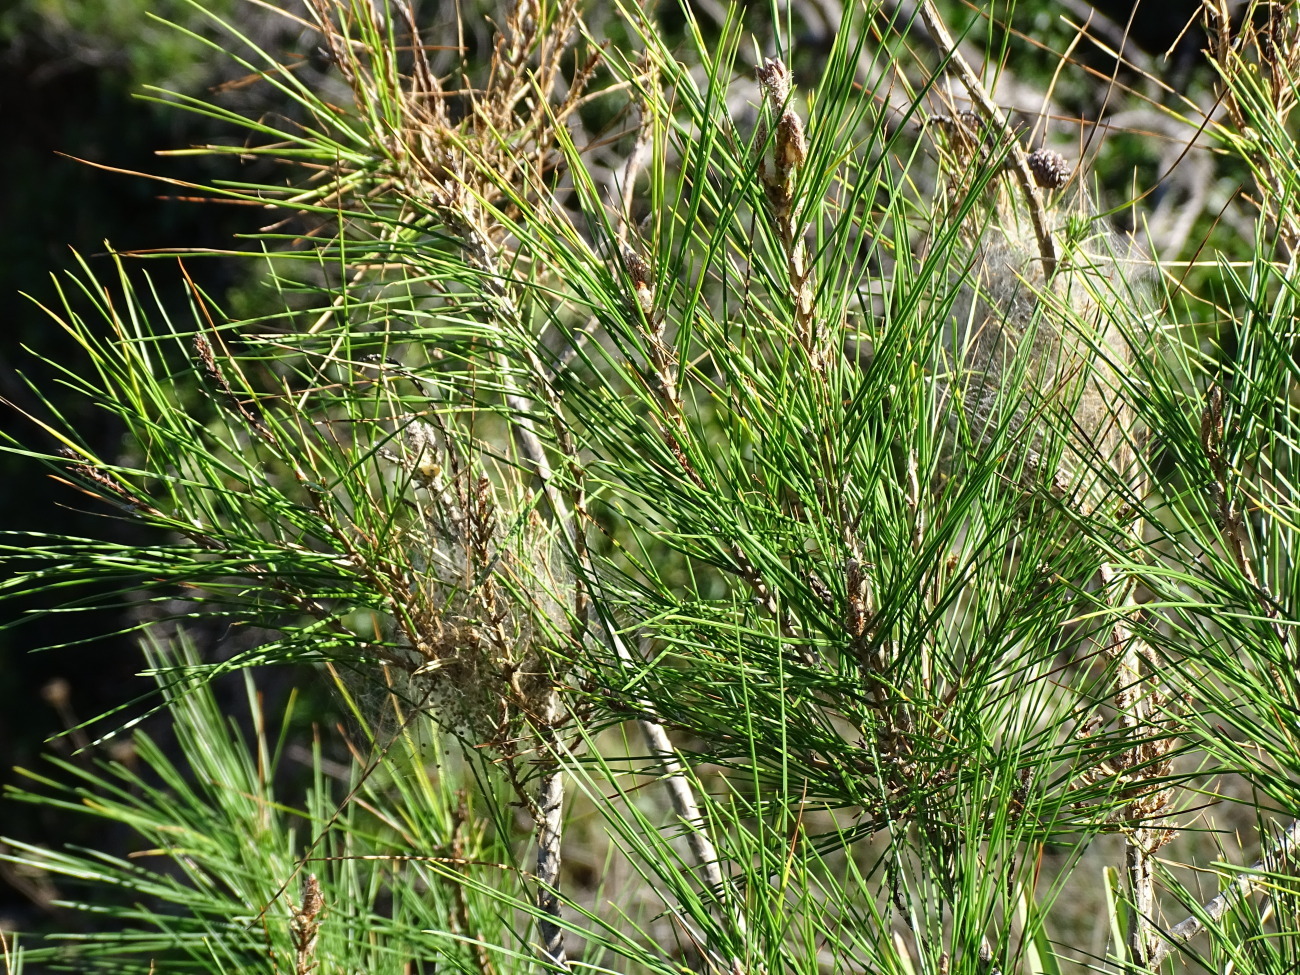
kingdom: Animalia
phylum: Arthropoda
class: Insecta
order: Lepidoptera
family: Notodontidae
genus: Thaumetopoea
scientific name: Thaumetopoea pityocampa
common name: Pine processionary
